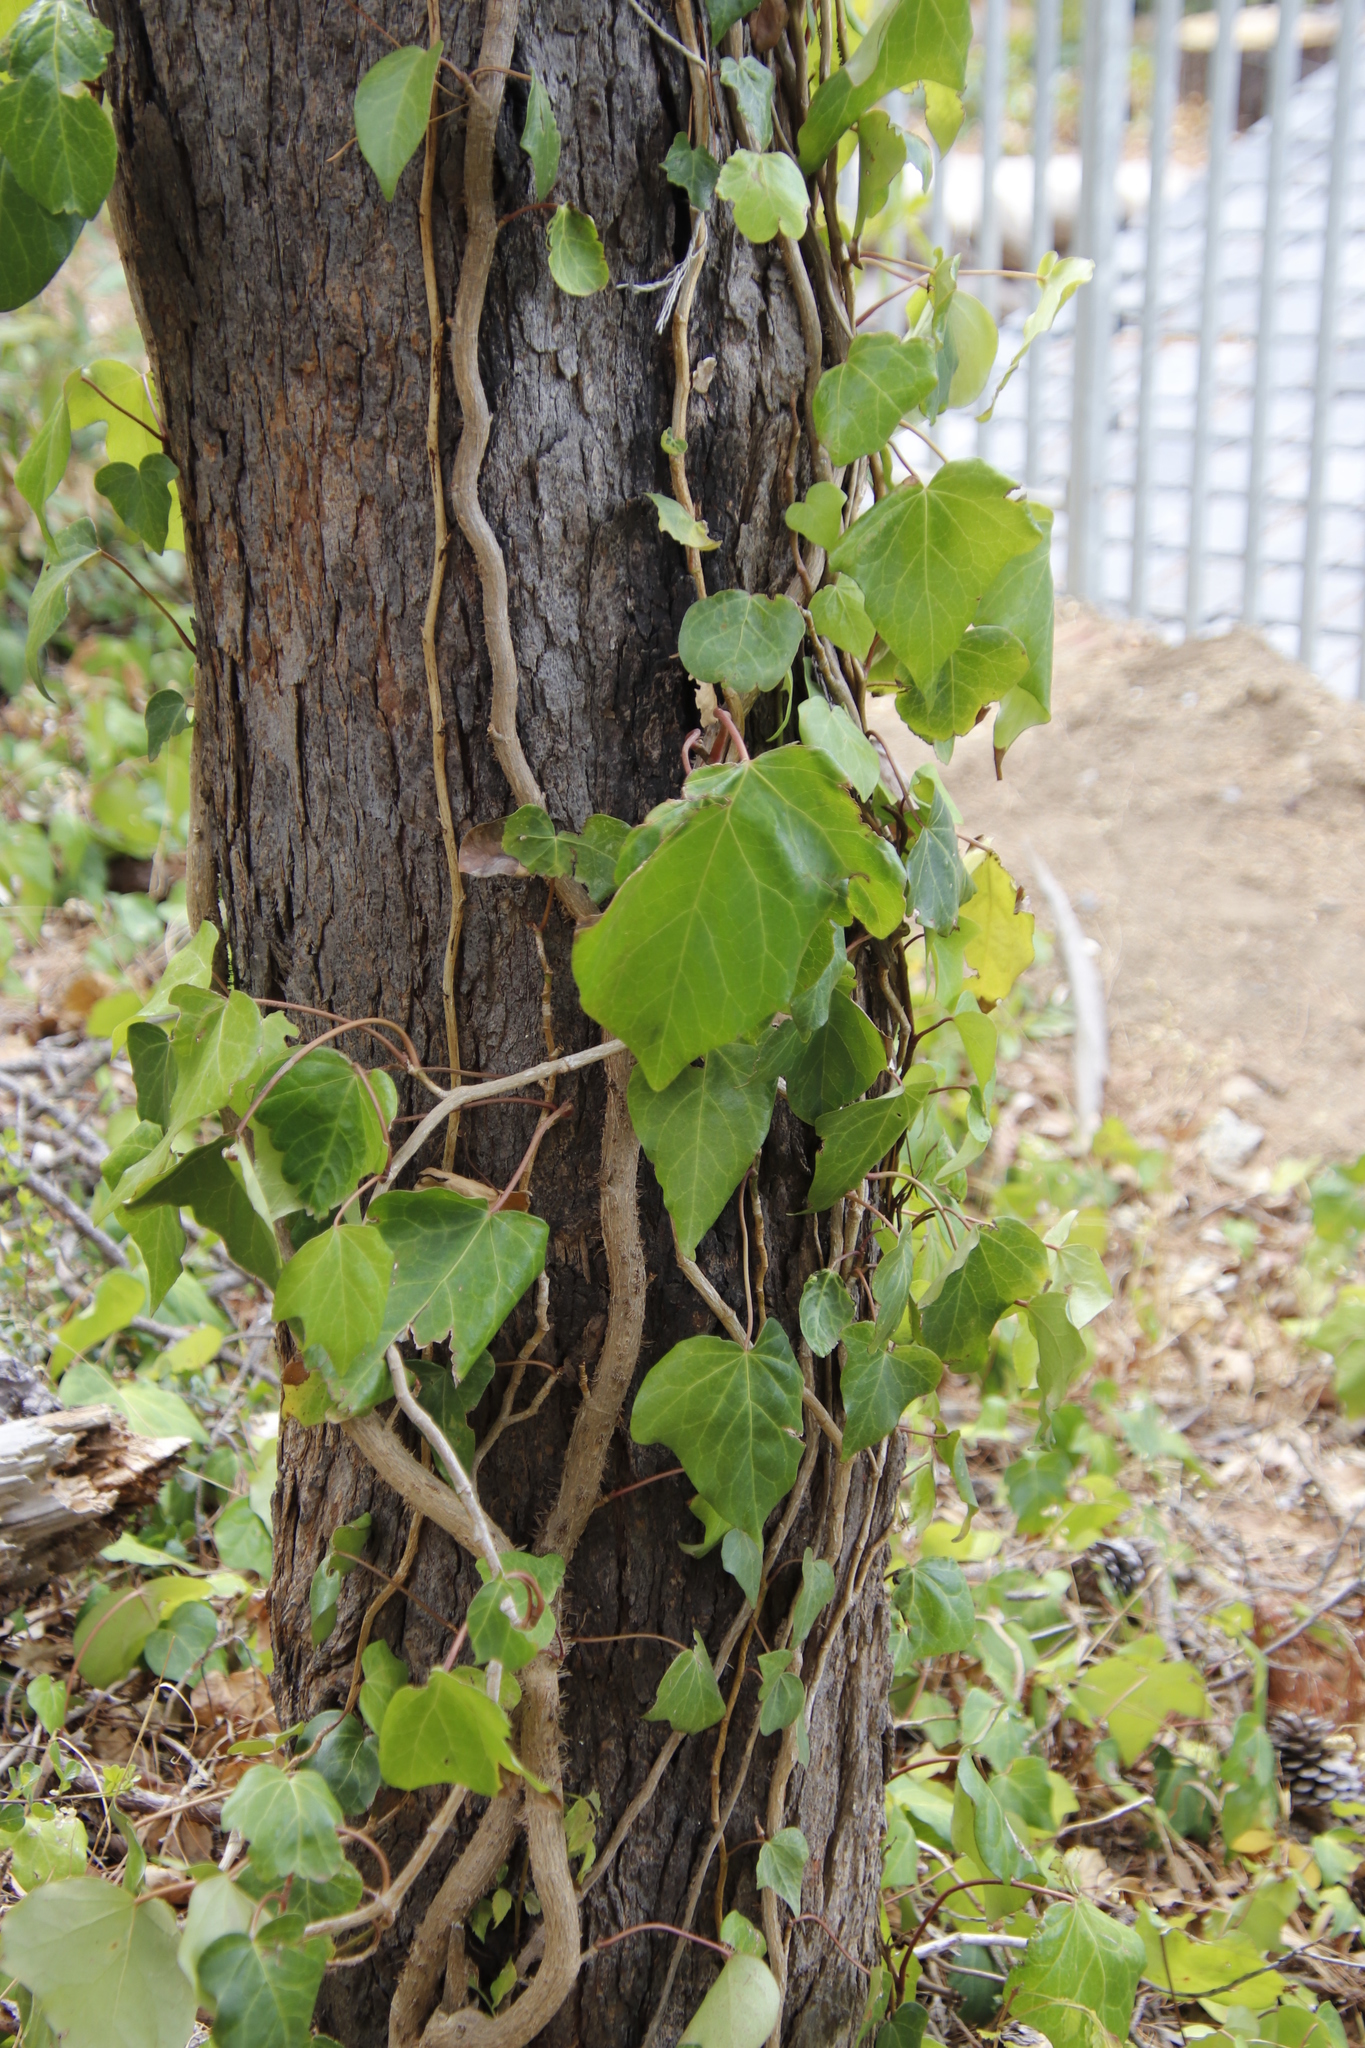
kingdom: Plantae
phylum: Tracheophyta
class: Magnoliopsida
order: Apiales
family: Araliaceae
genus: Hedera
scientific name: Hedera canariensis
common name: Madeira ivy
